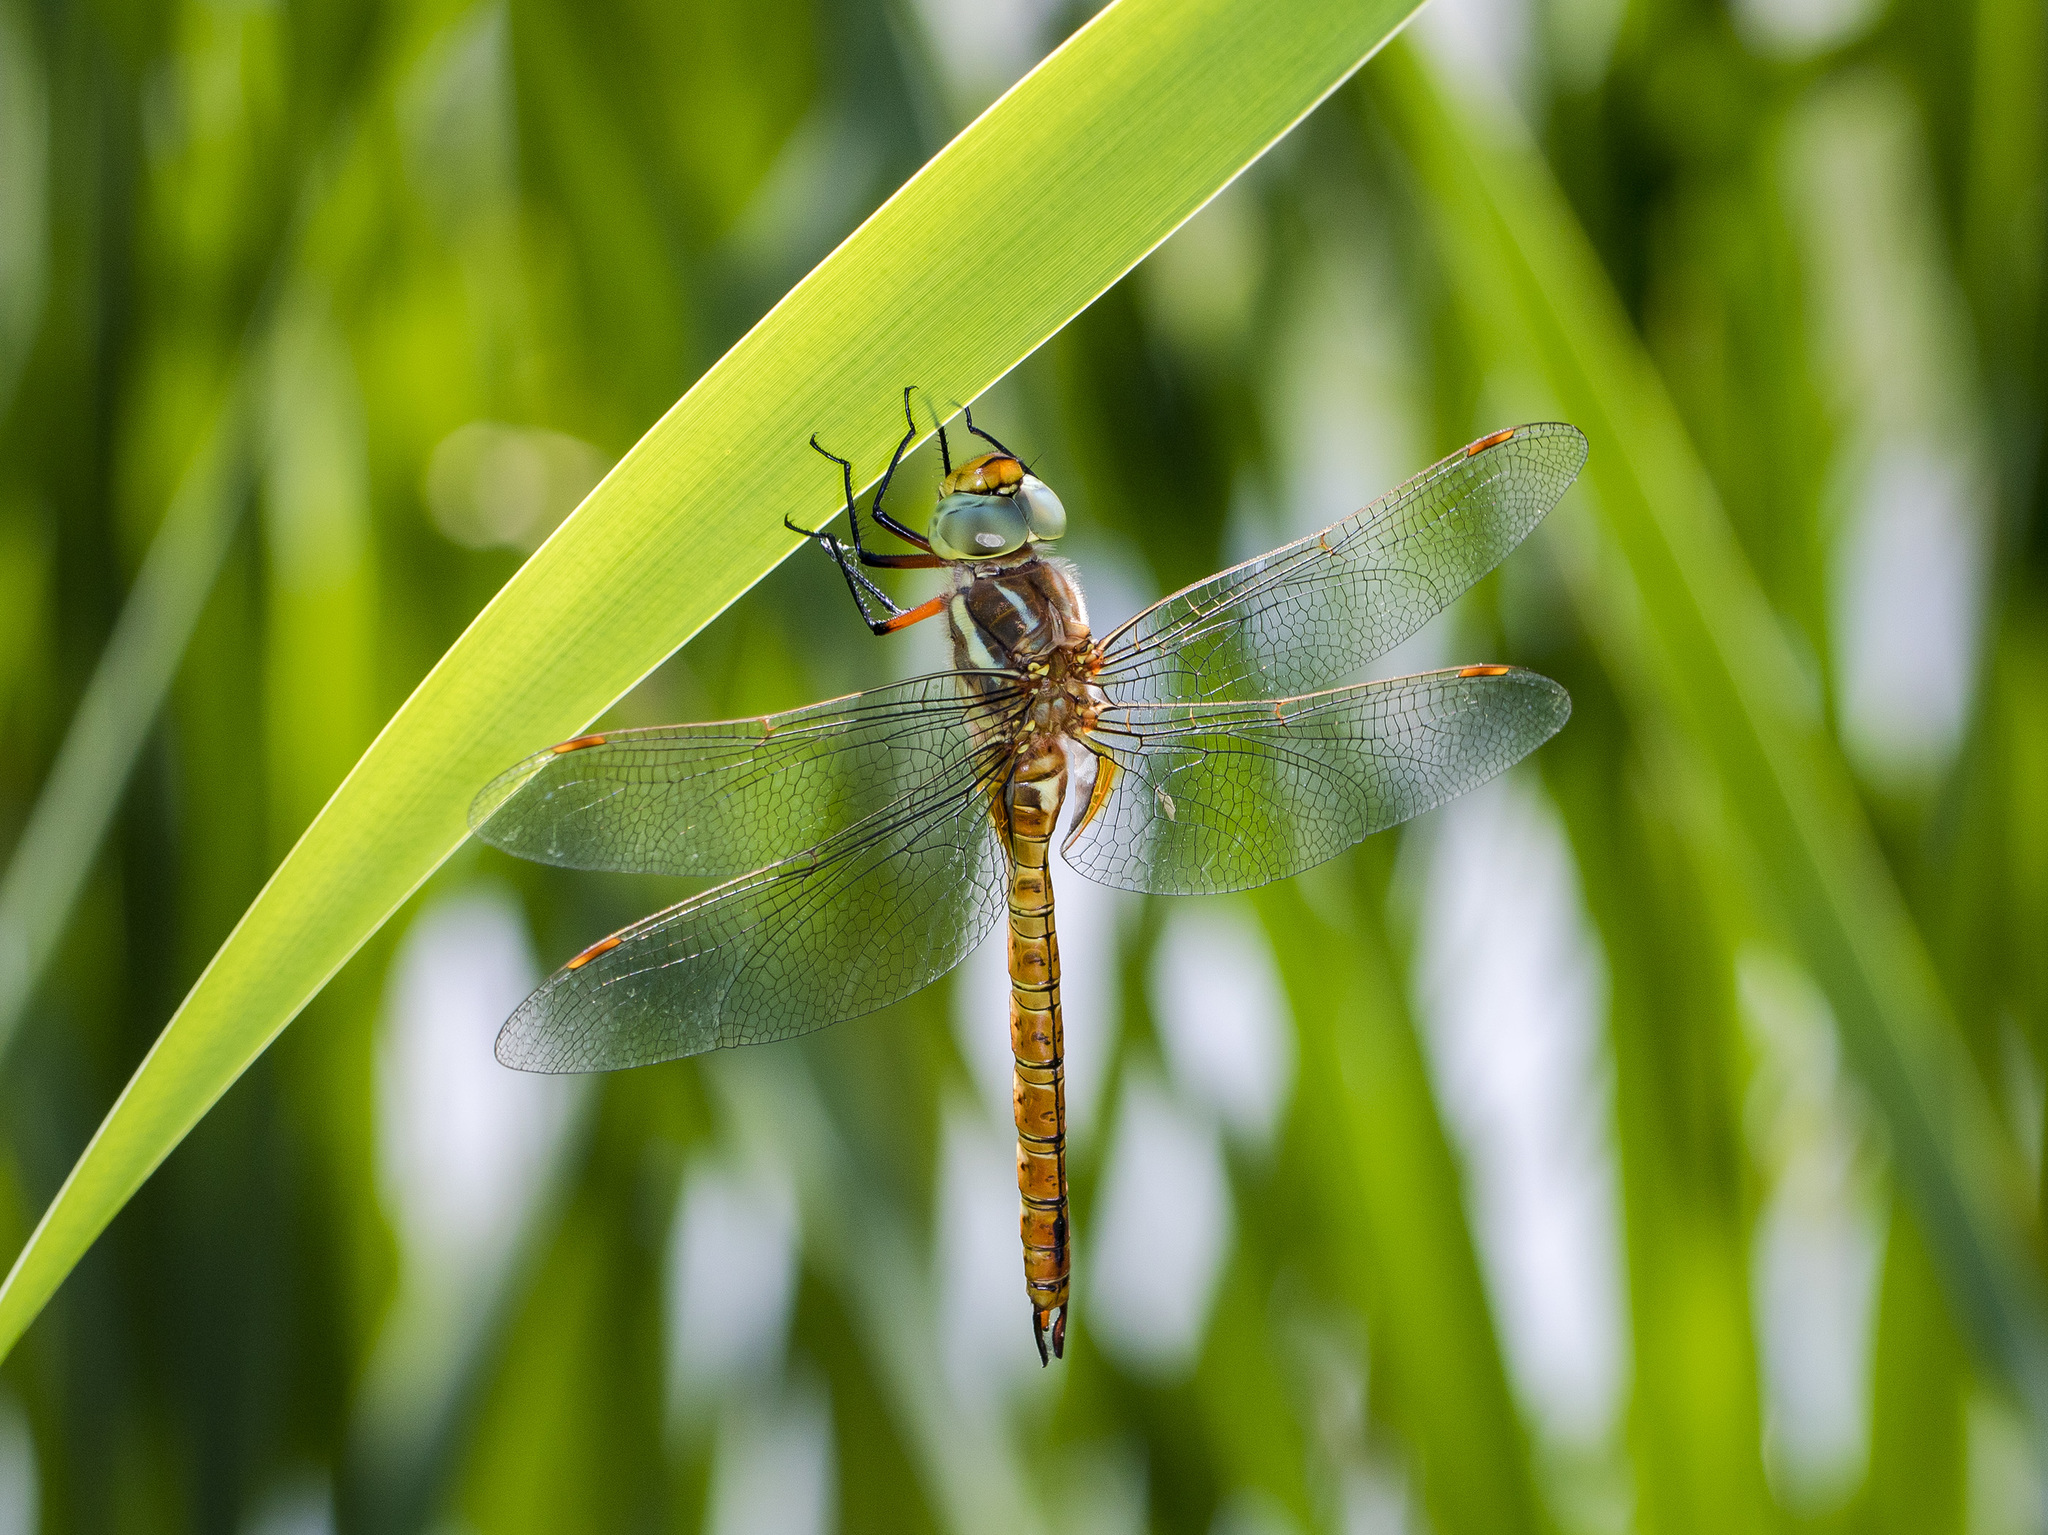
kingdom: Animalia
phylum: Arthropoda
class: Insecta
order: Odonata
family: Aeshnidae
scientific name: Aeshnidae
